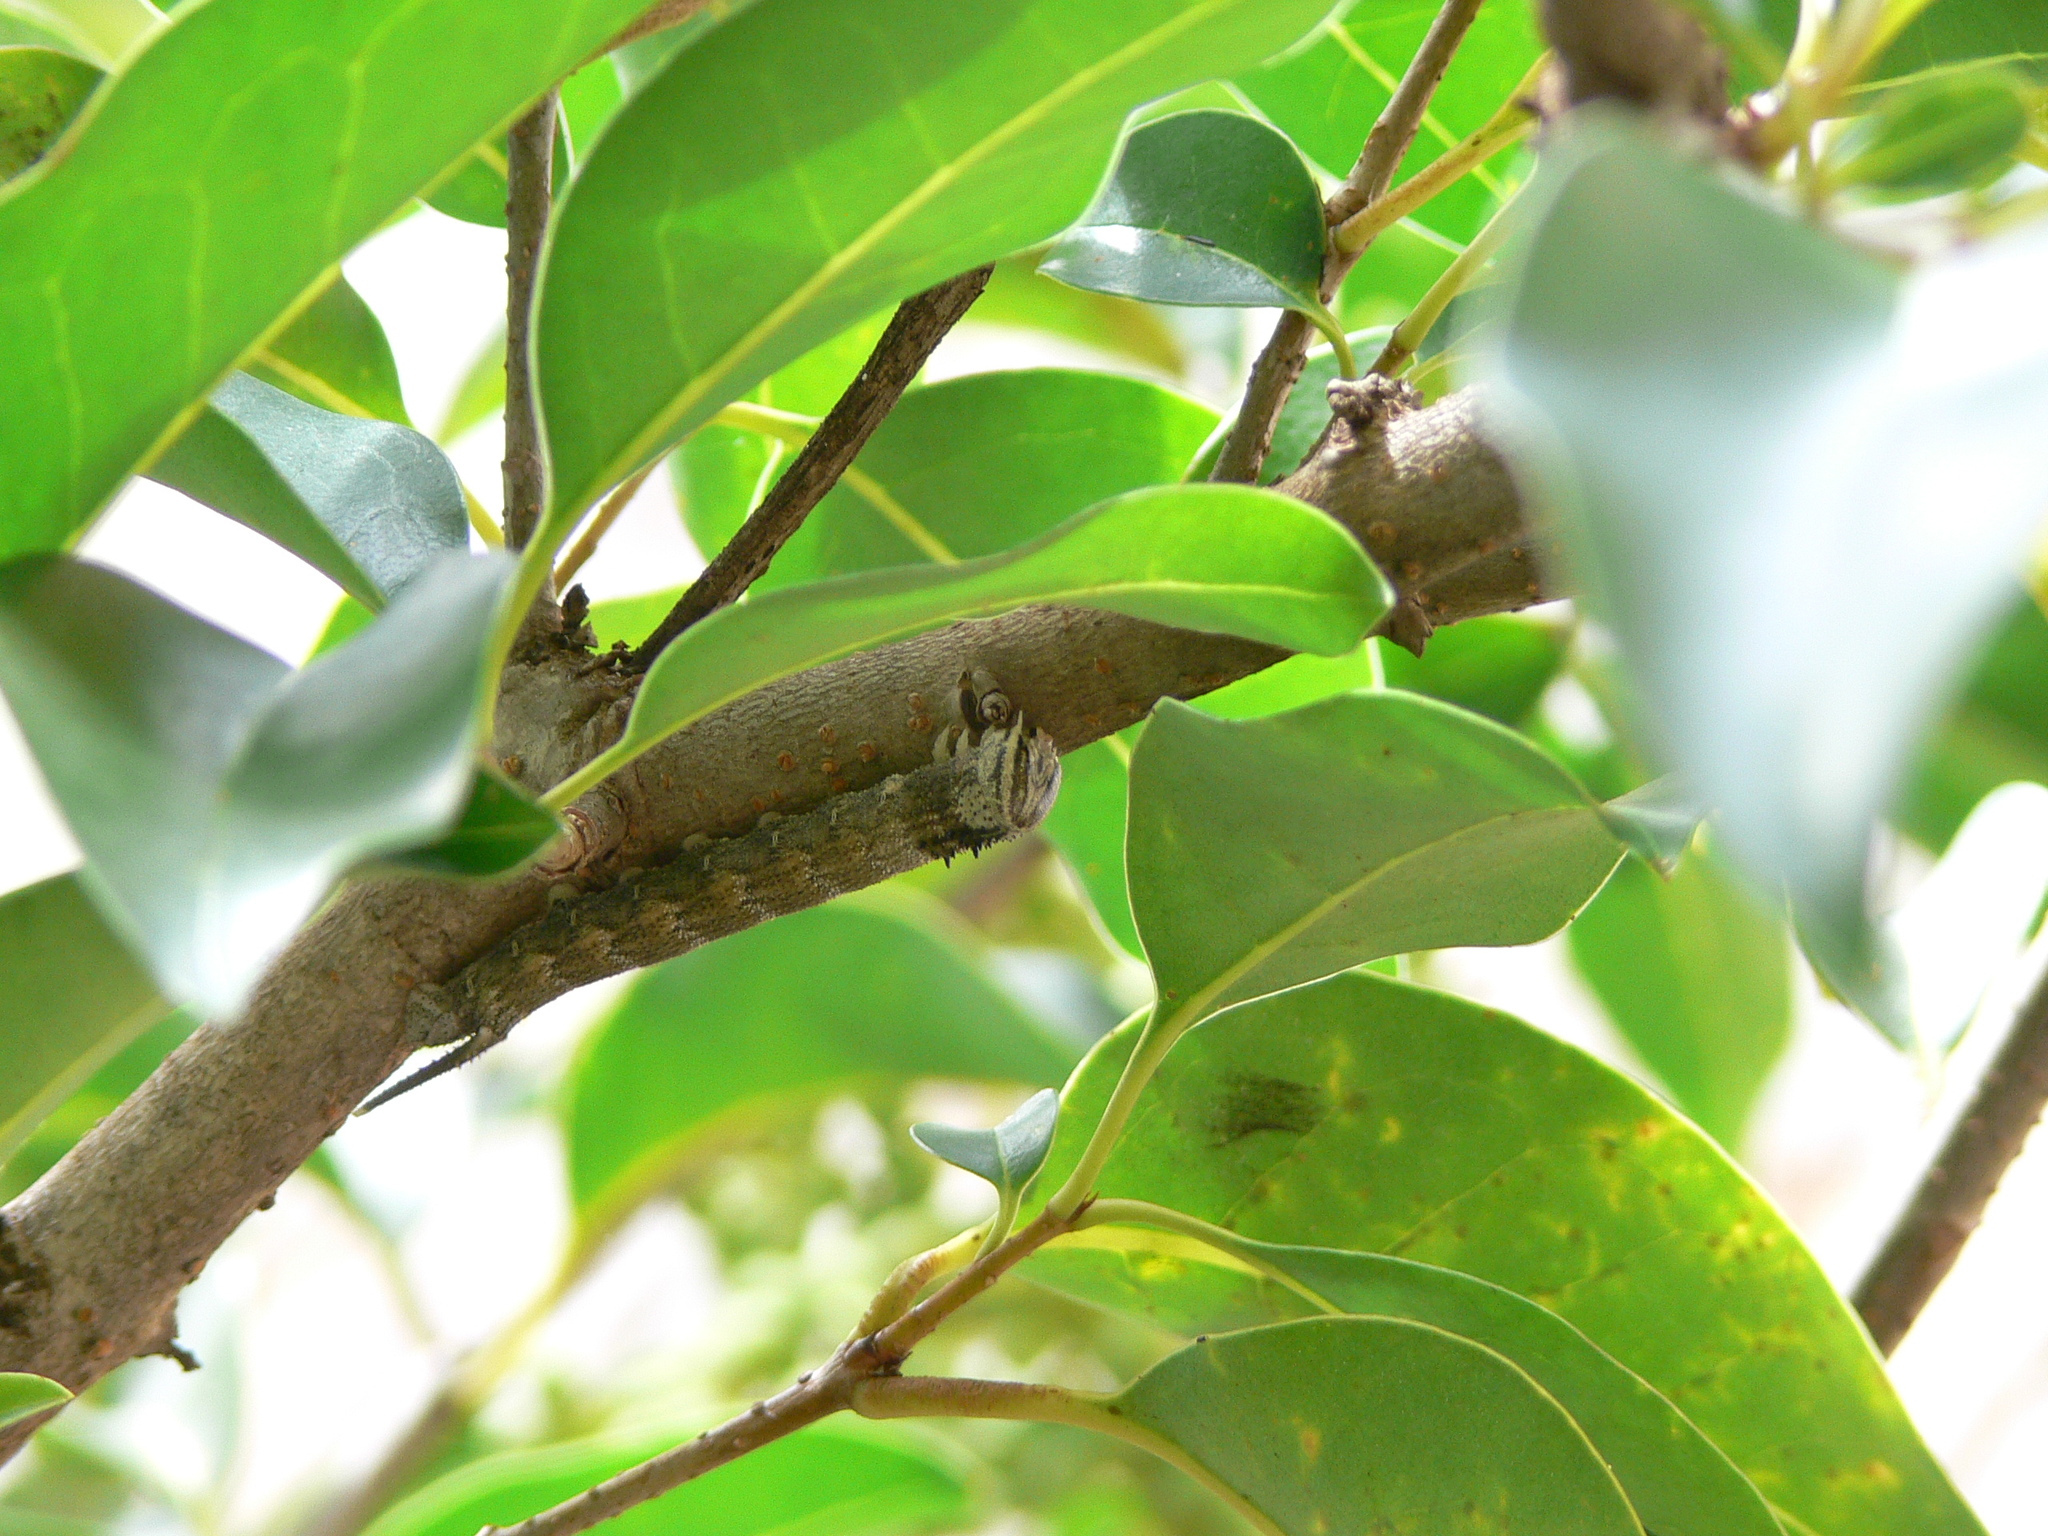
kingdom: Animalia
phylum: Arthropoda
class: Insecta
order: Lepidoptera
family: Sphingidae
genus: Panogena
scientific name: Panogena jasmini
